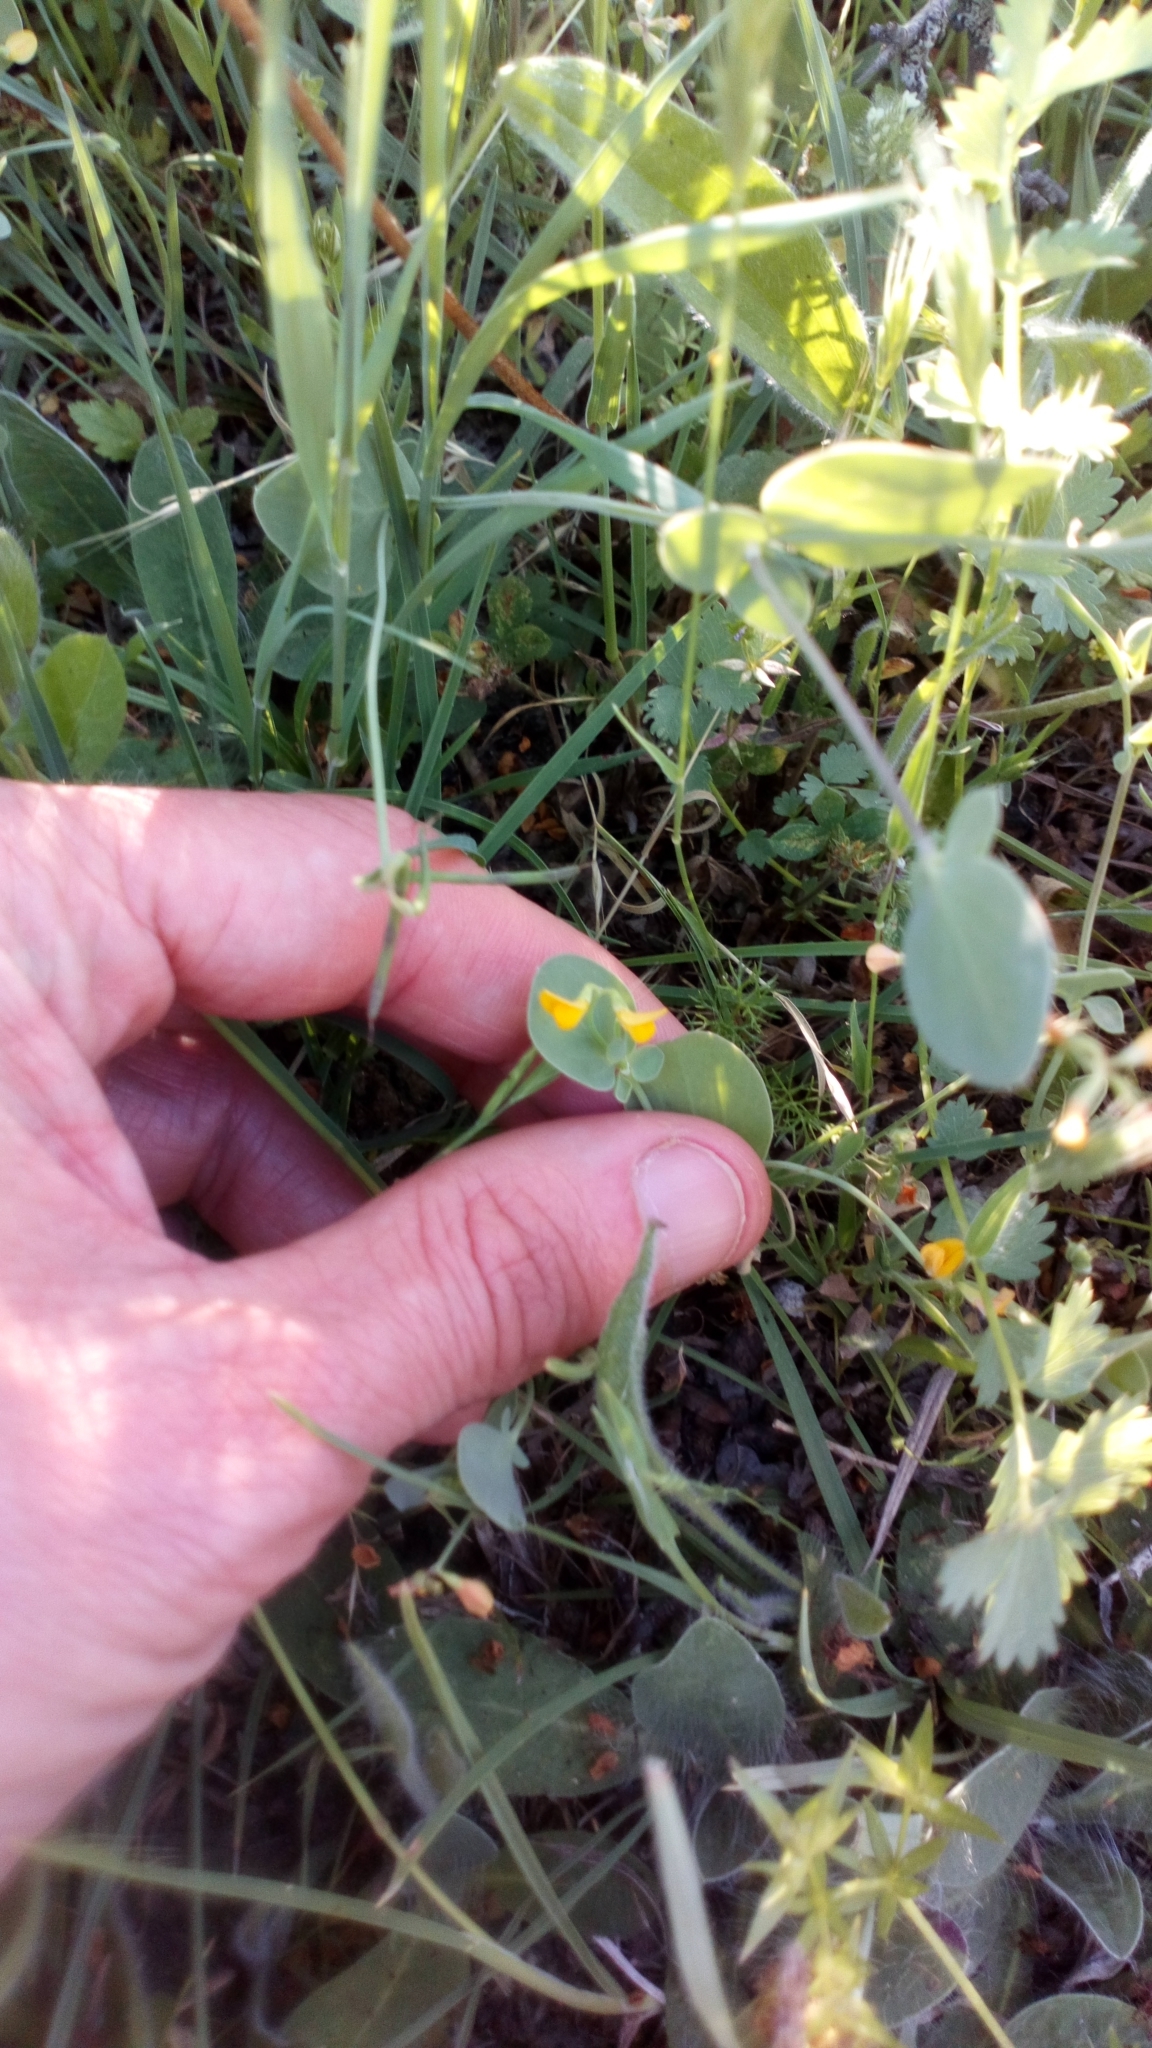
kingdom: Plantae
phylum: Tracheophyta
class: Magnoliopsida
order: Fabales
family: Fabaceae
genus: Coronilla
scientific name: Coronilla scorpioides
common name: Annual scorpion-vetch
